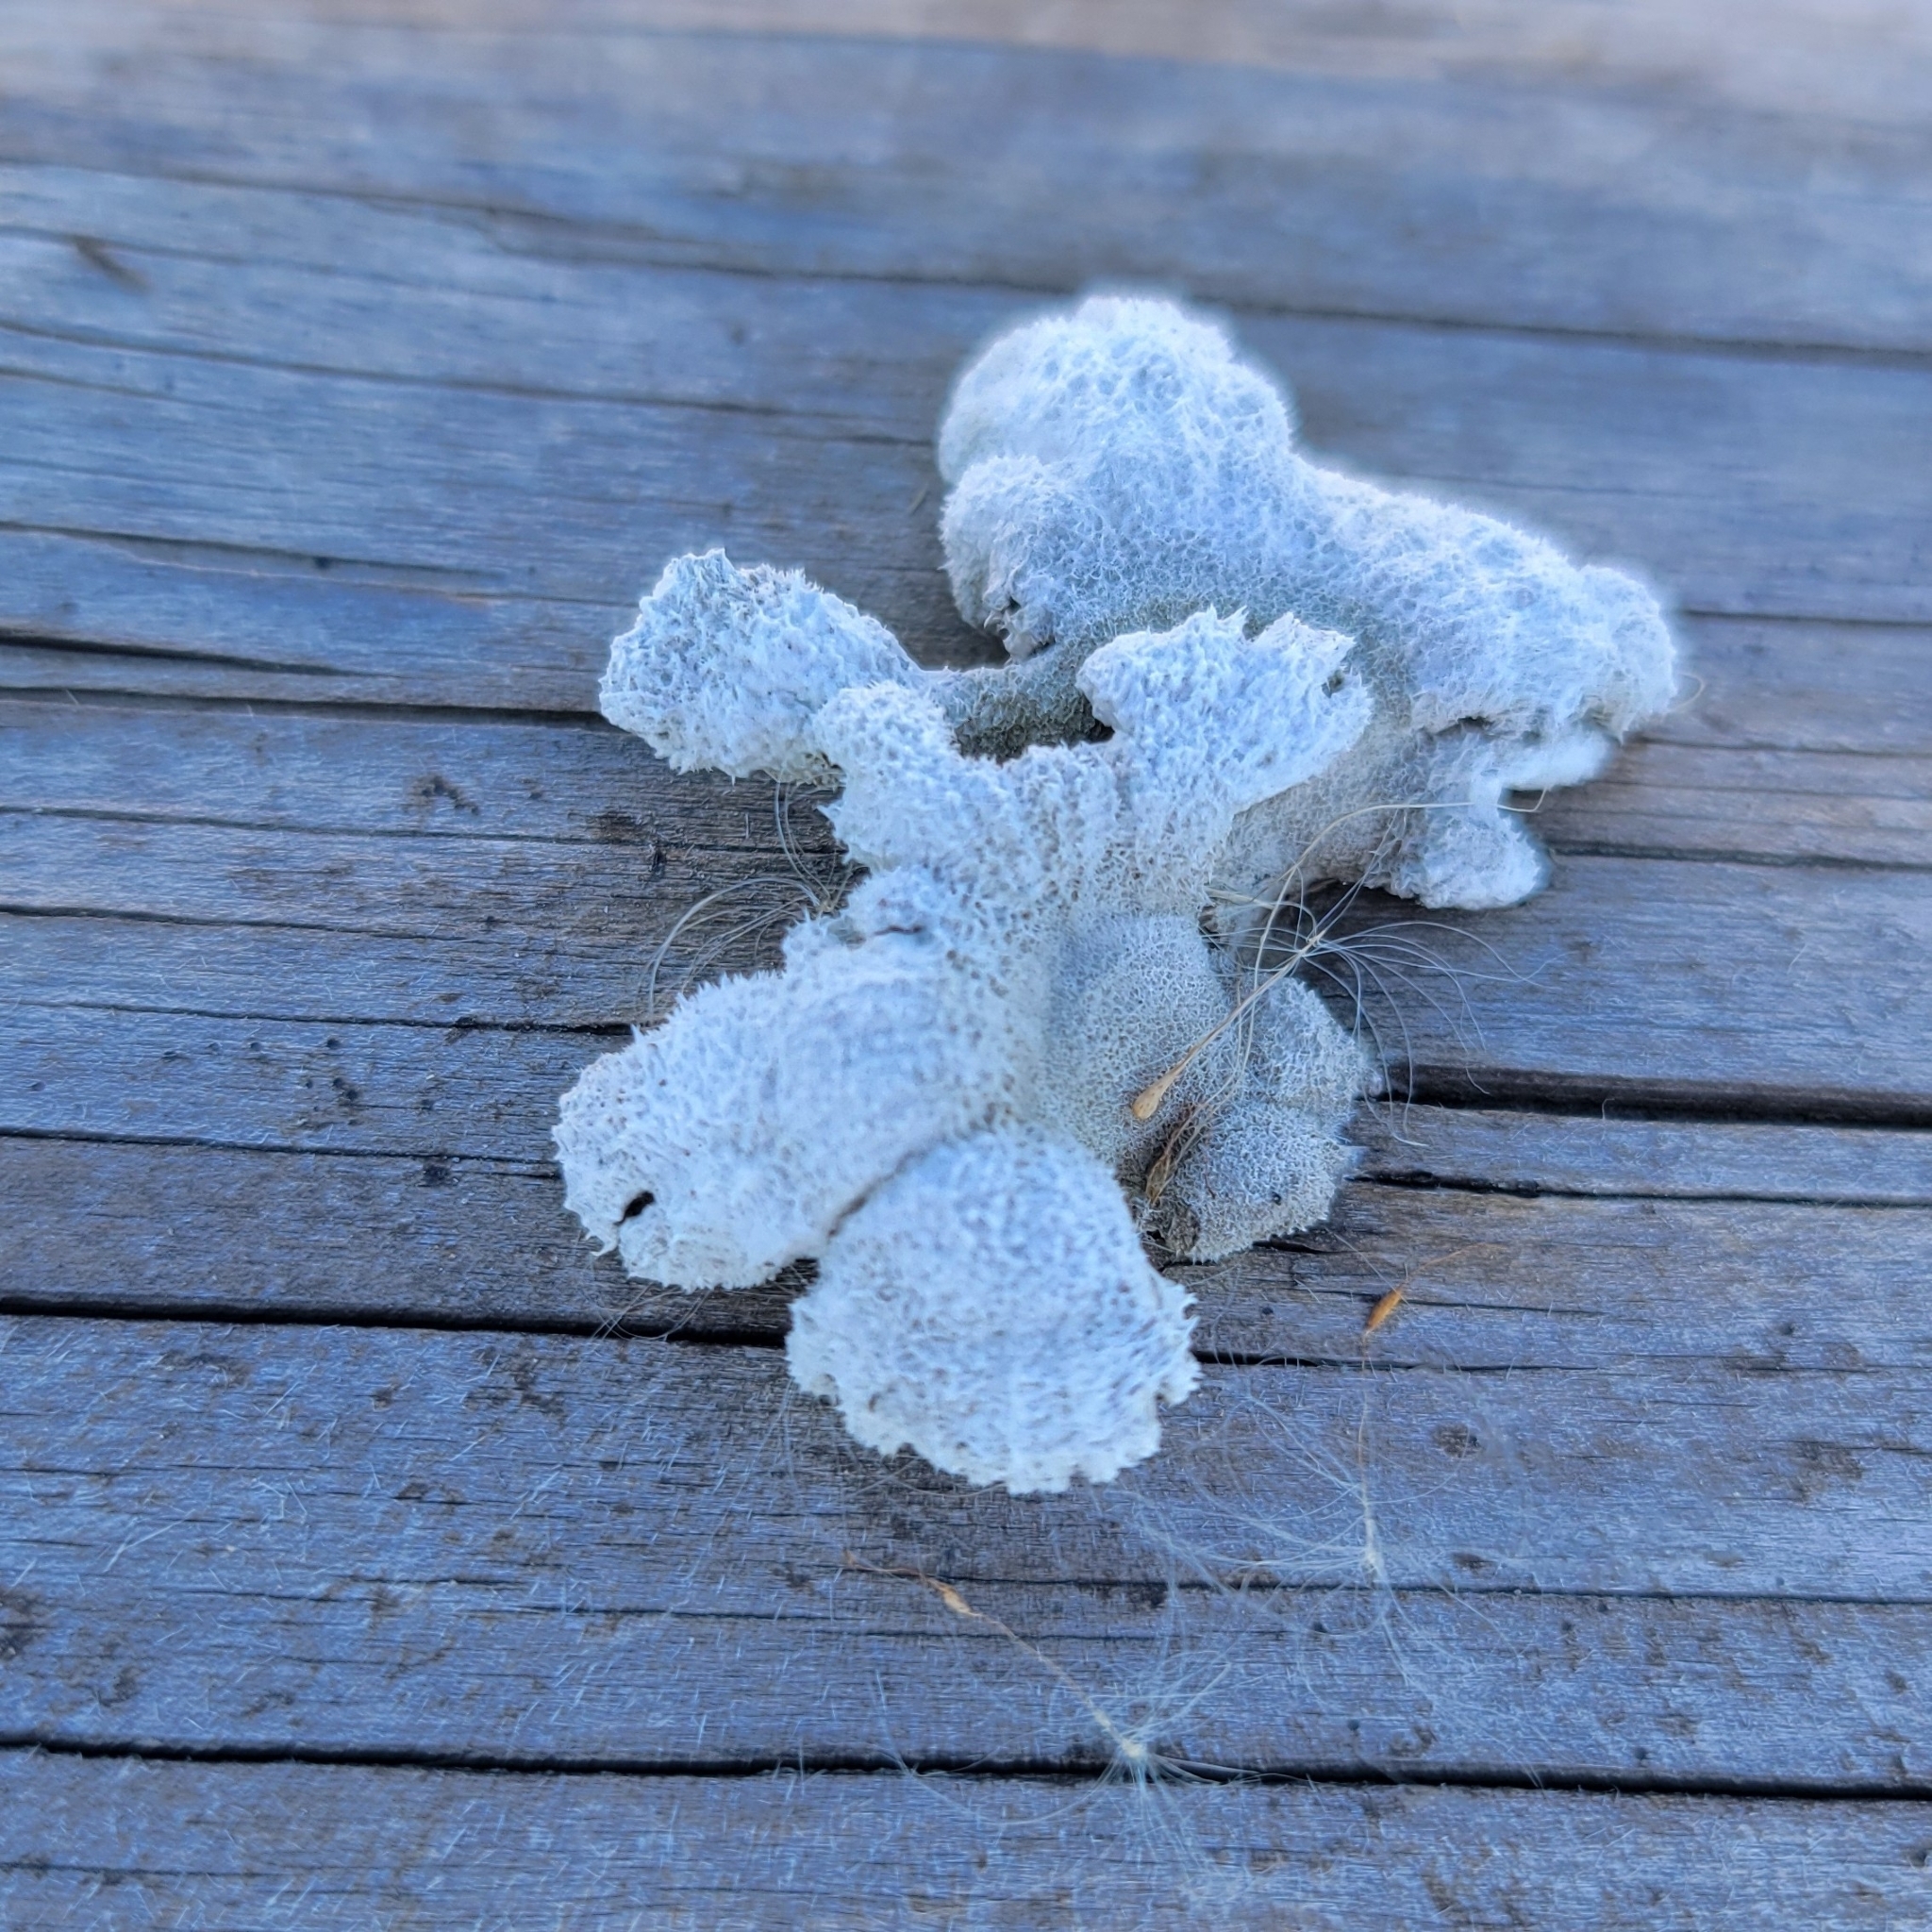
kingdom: Fungi
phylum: Basidiomycota
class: Agaricomycetes
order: Agaricales
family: Schizophyllaceae
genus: Schizophyllum
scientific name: Schizophyllum commune
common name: Common porecrust
